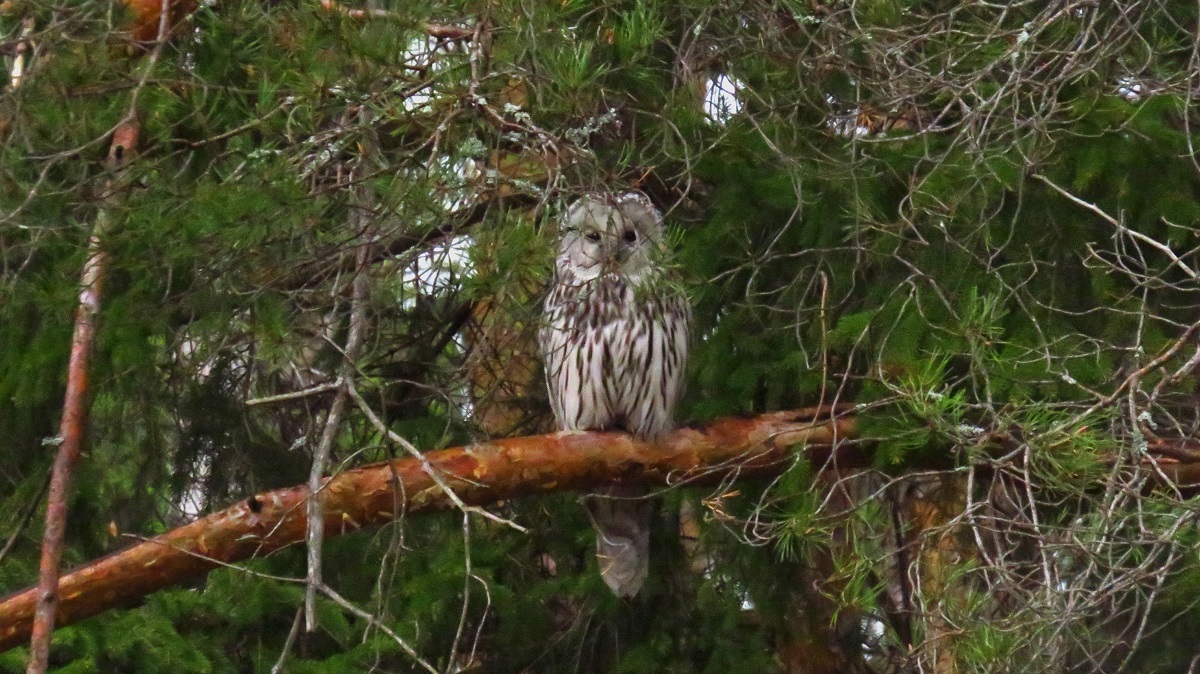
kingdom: Animalia
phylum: Chordata
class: Aves
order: Strigiformes
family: Strigidae
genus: Strix
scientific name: Strix uralensis
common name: Ural owl
